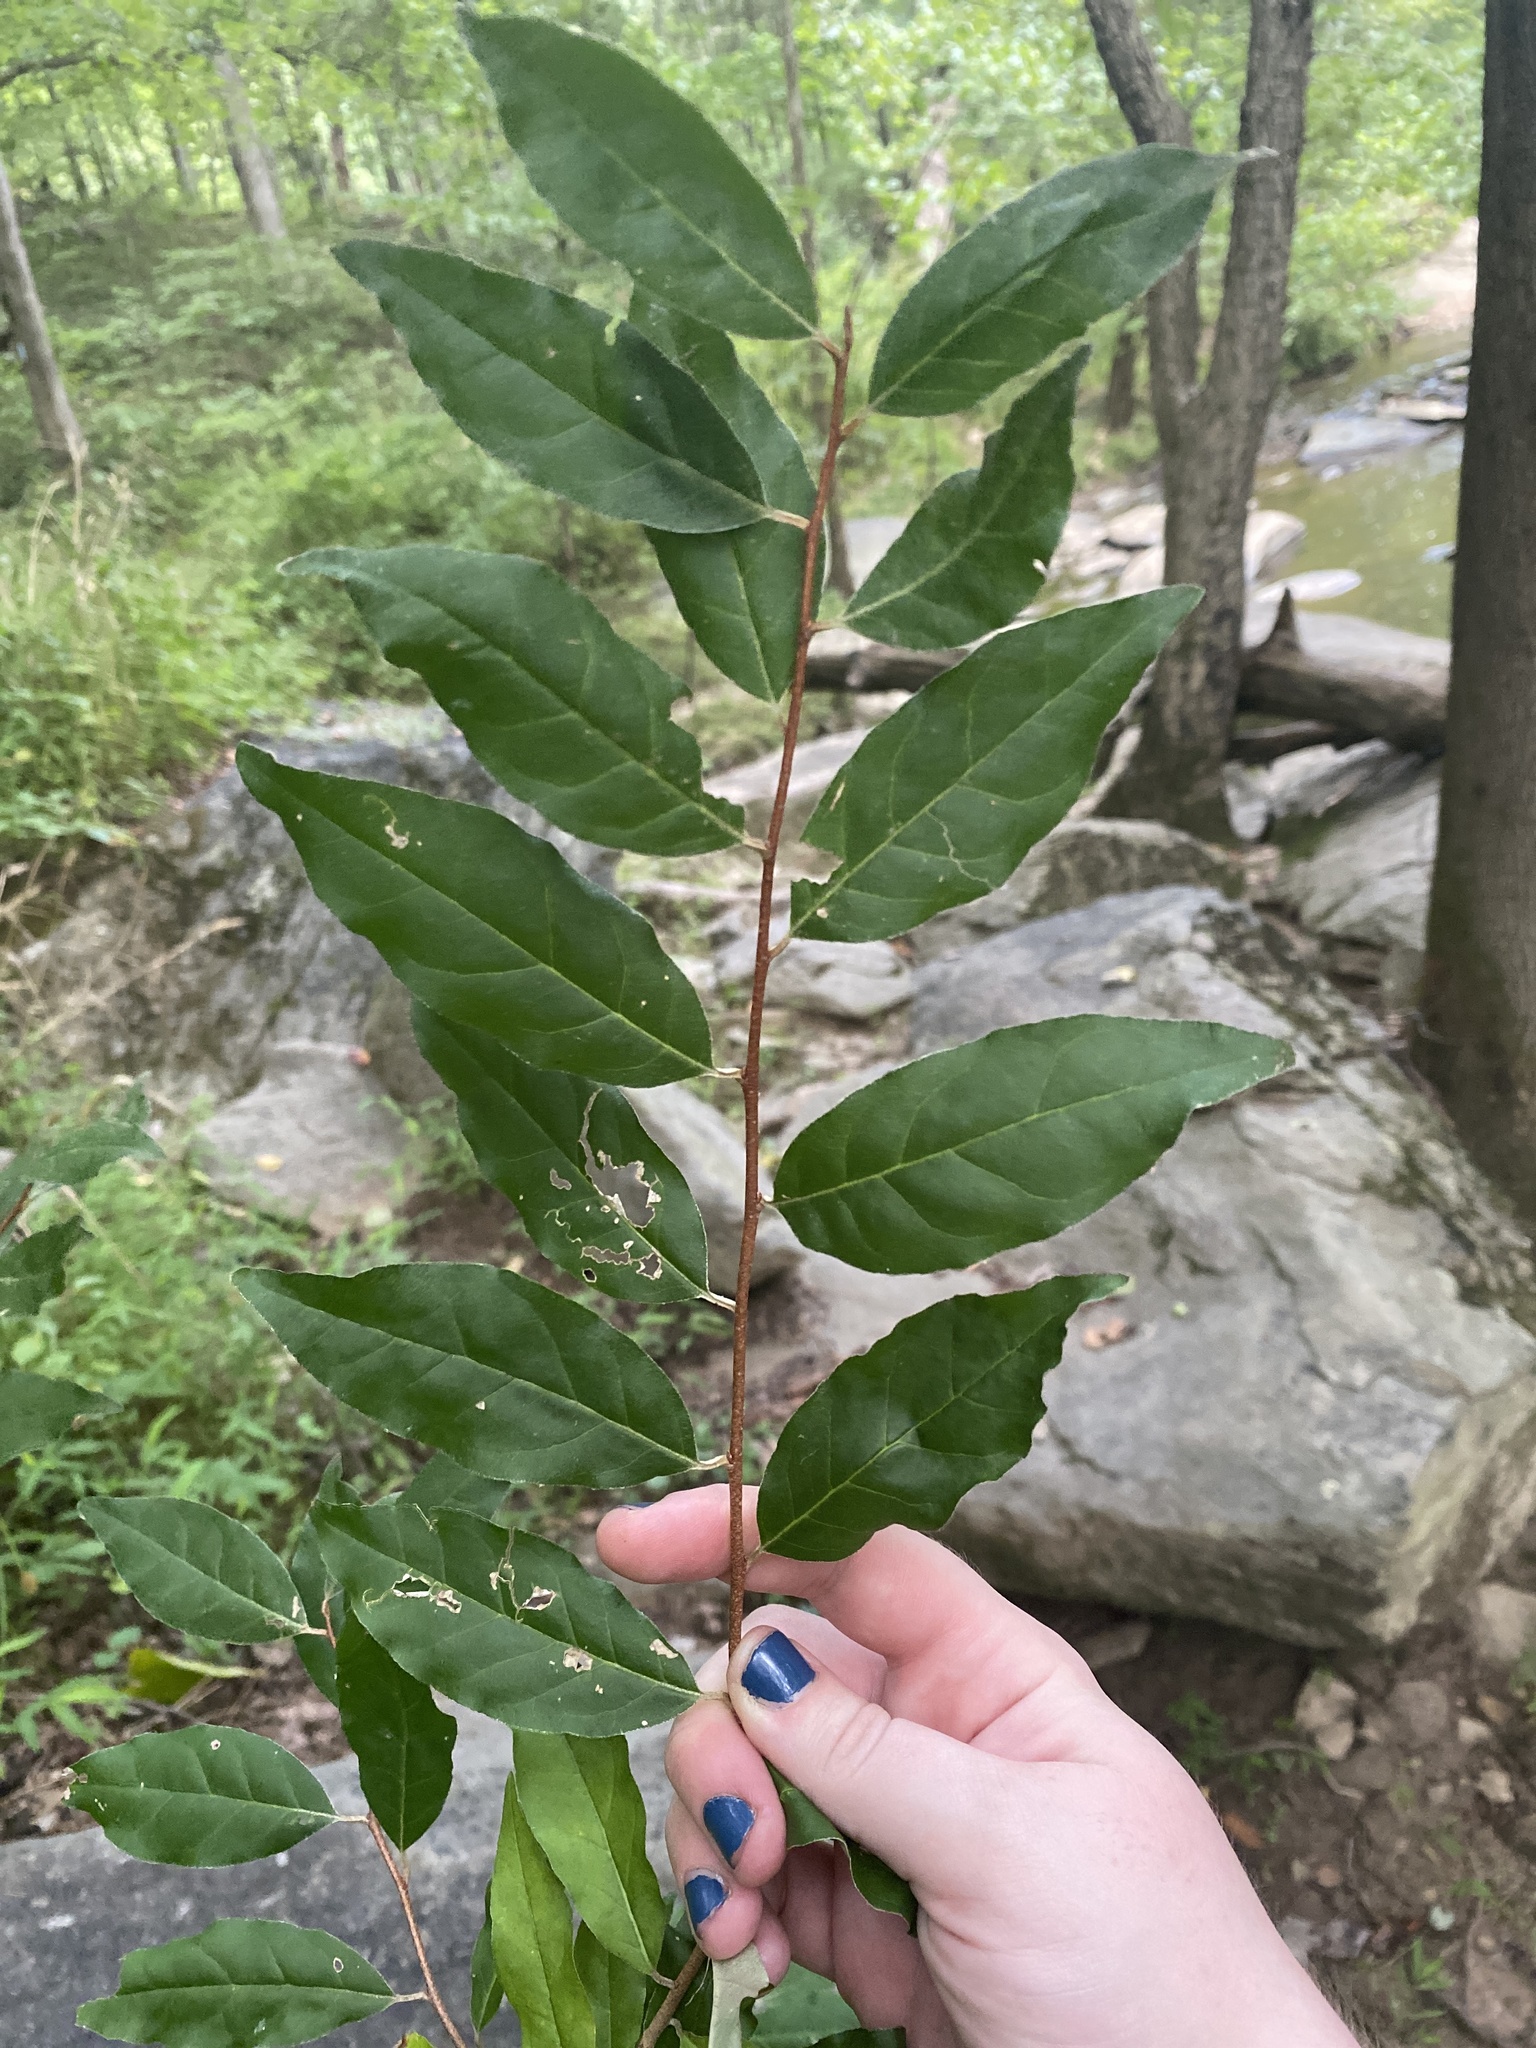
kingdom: Plantae
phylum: Tracheophyta
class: Magnoliopsida
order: Rosales
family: Elaeagnaceae
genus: Elaeagnus
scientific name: Elaeagnus umbellata
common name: Autumn olive
